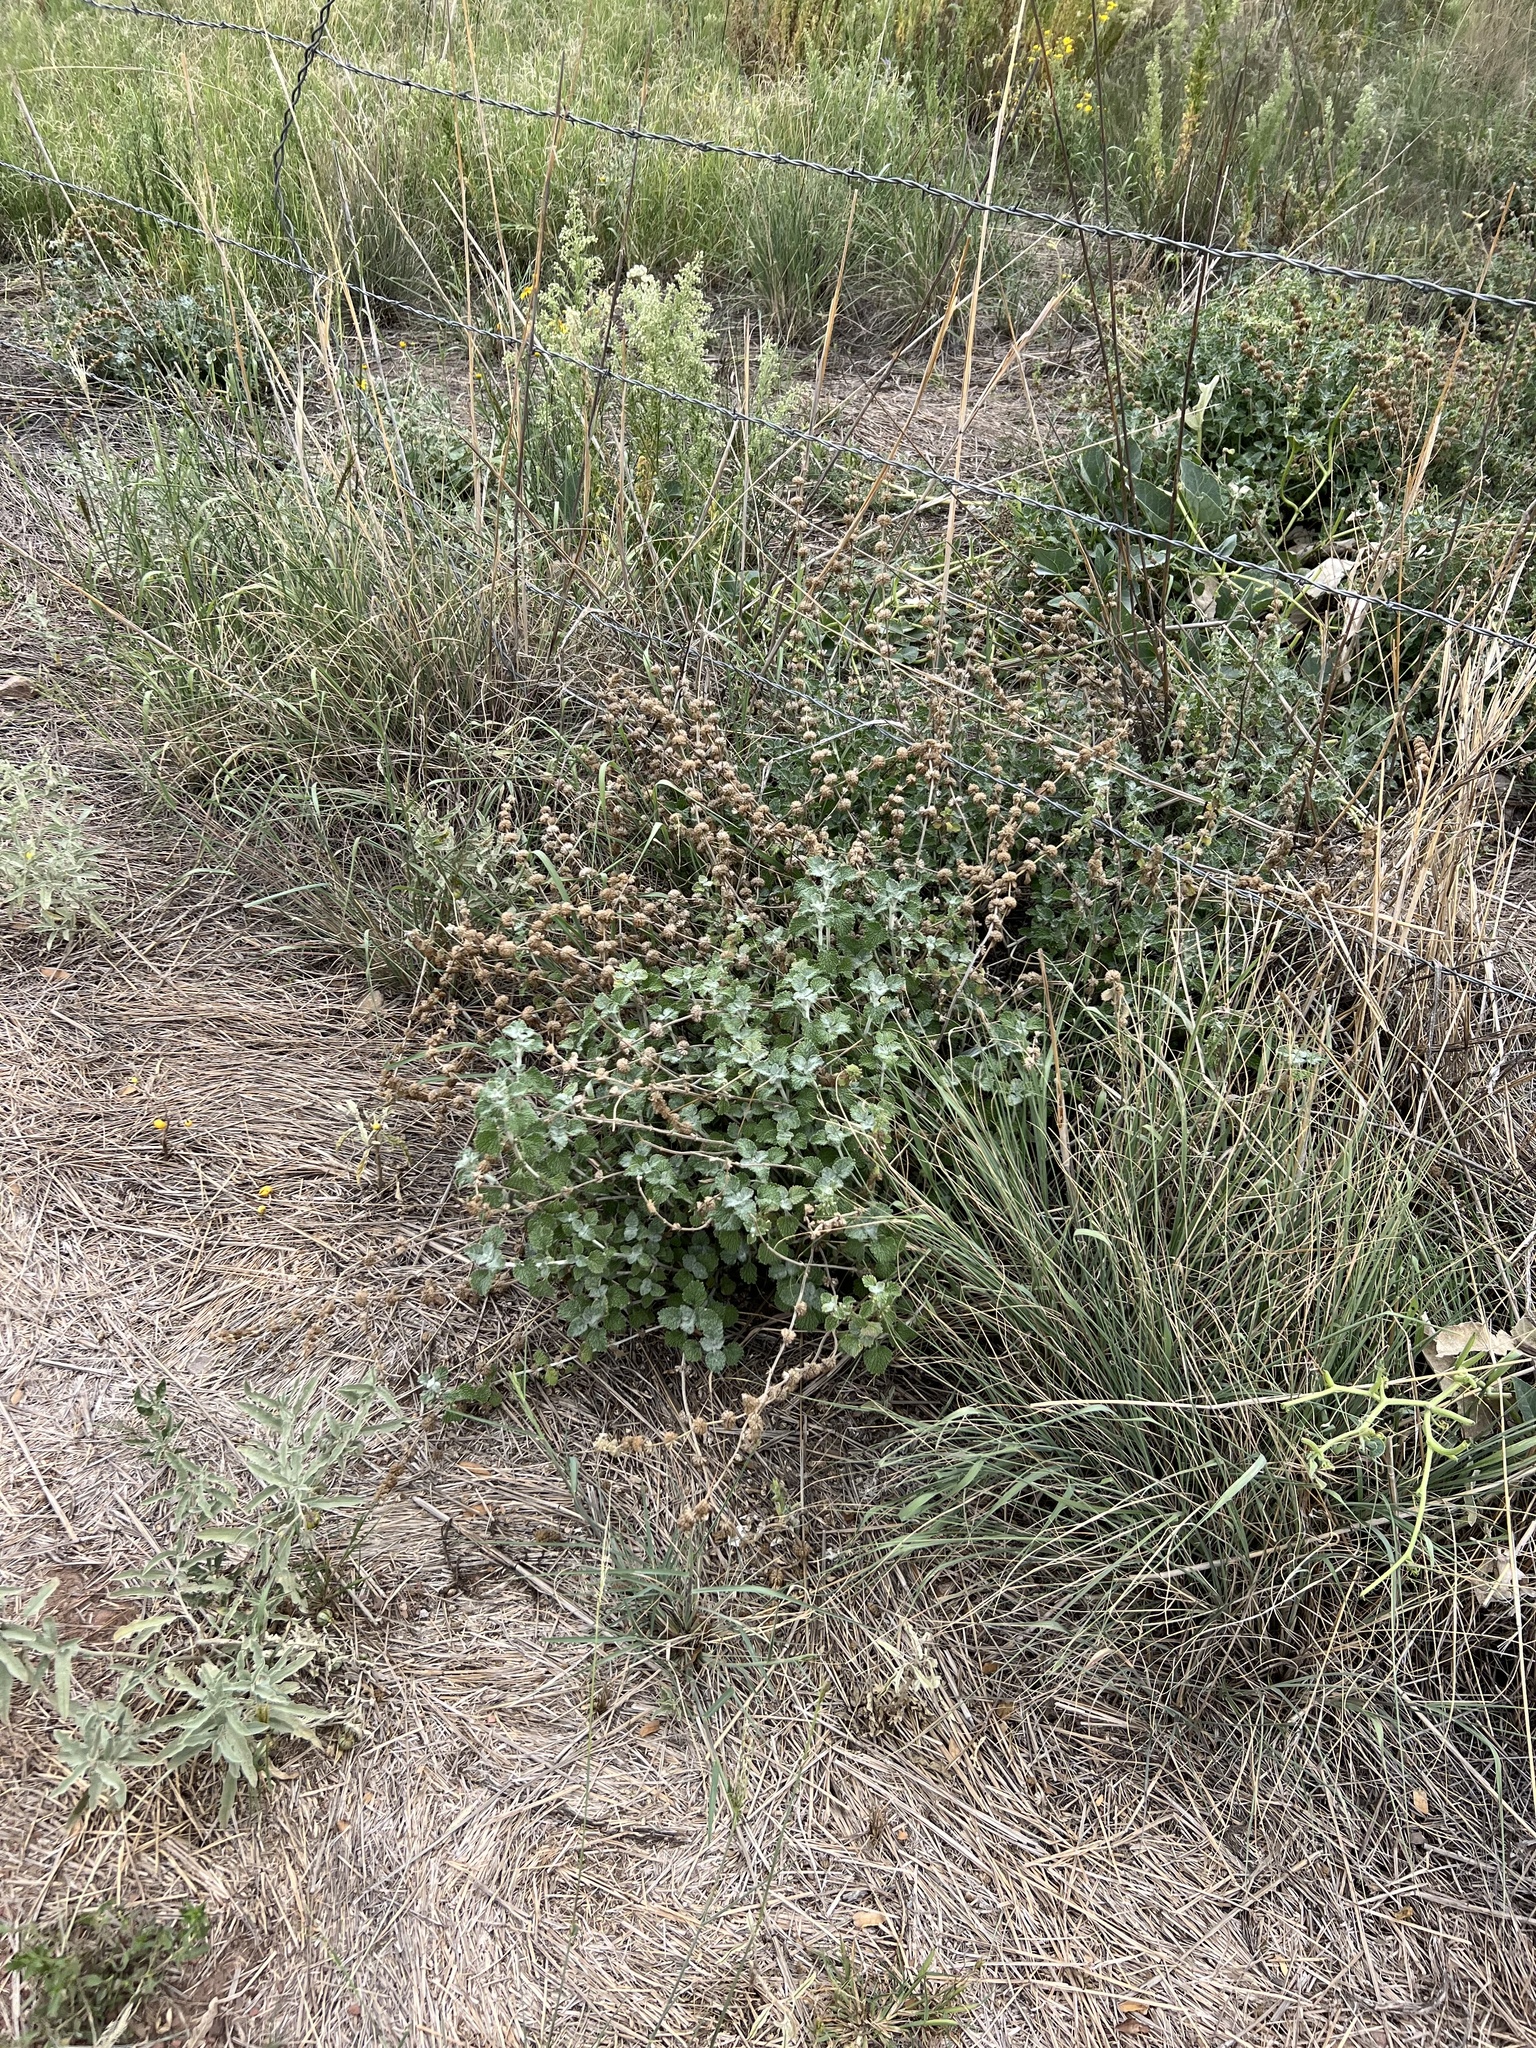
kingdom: Plantae
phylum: Tracheophyta
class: Magnoliopsida
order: Lamiales
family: Lamiaceae
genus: Marrubium
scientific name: Marrubium vulgare
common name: Horehound
